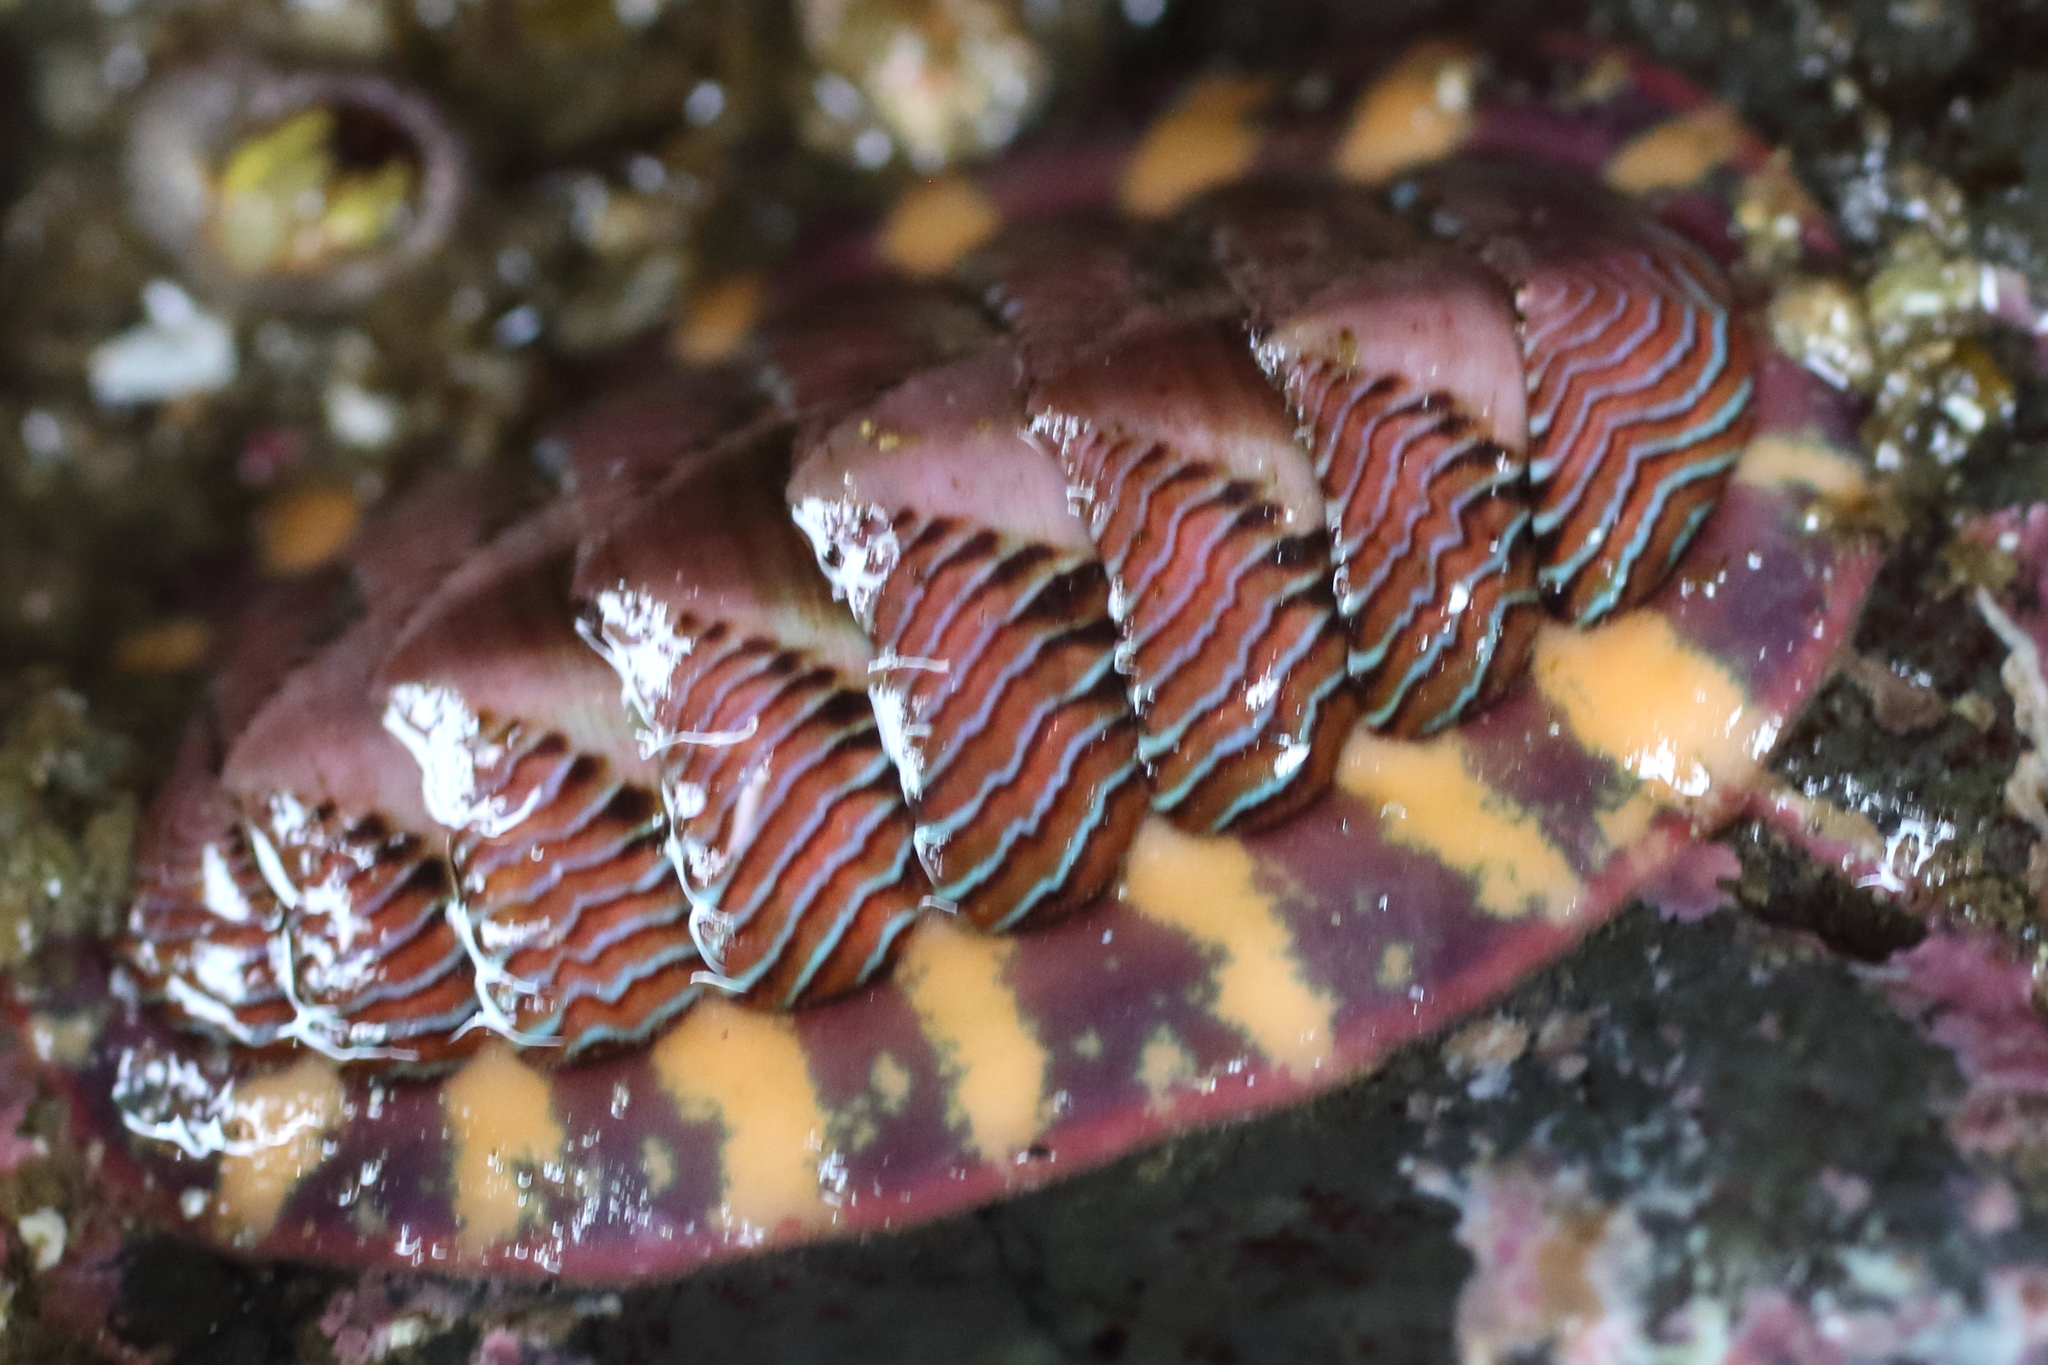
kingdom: Animalia
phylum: Mollusca
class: Polyplacophora
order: Chitonida
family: Tonicellidae
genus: Tonicella
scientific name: Tonicella lineata
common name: Lined chiton
